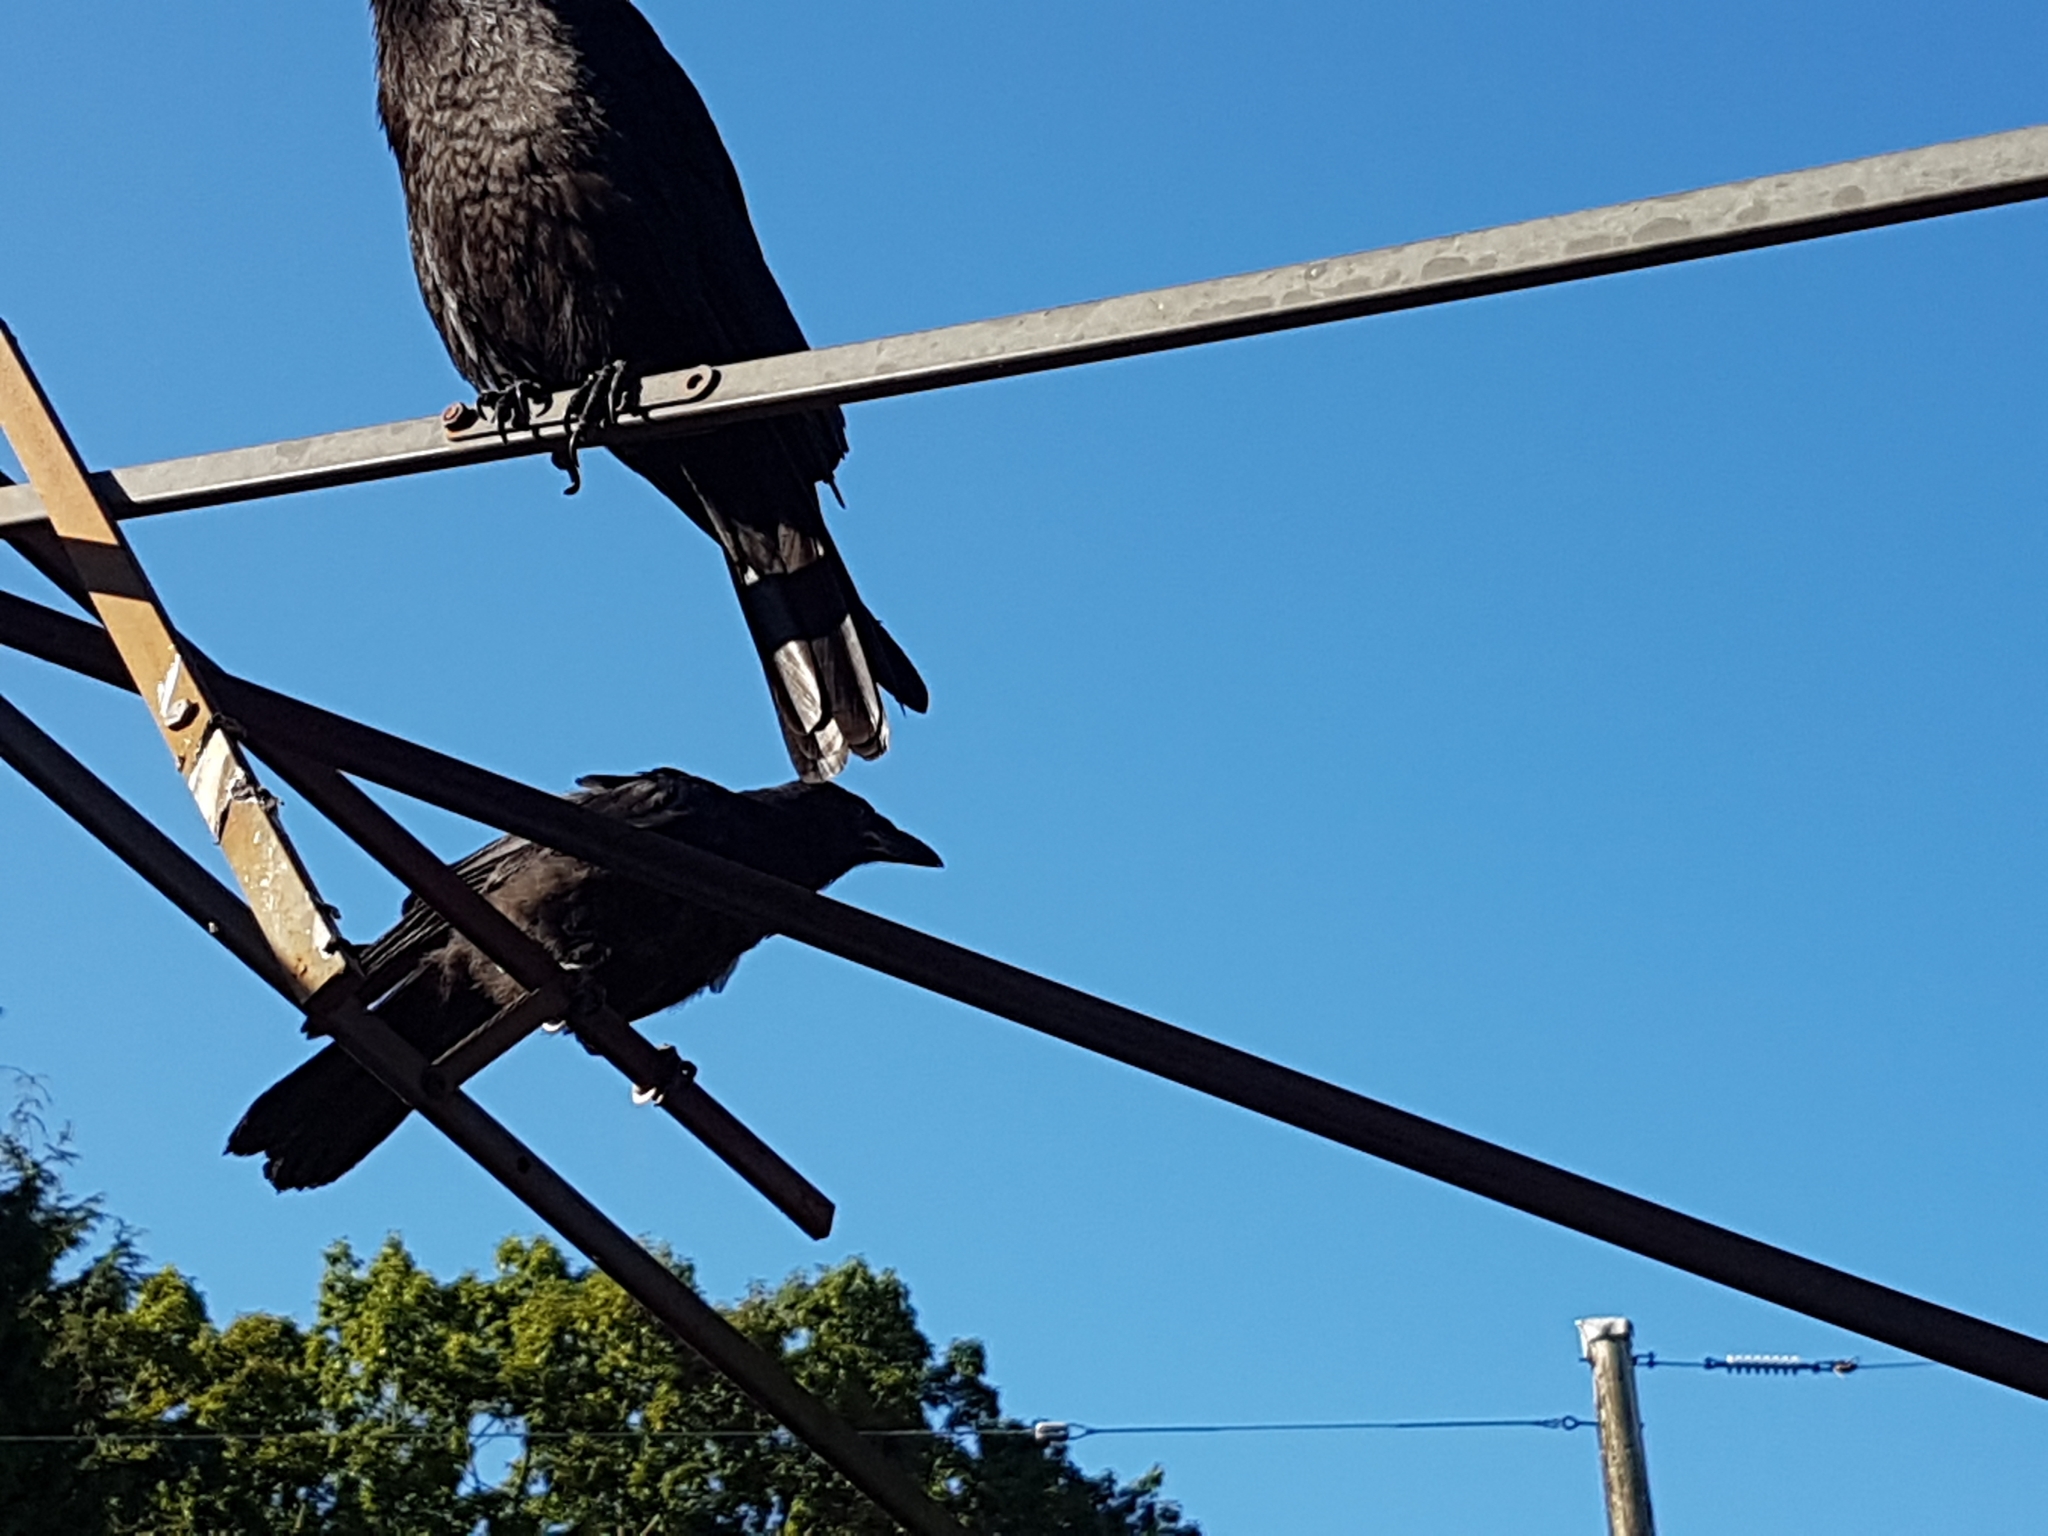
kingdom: Animalia
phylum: Chordata
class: Aves
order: Passeriformes
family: Corvidae
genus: Corvus
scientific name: Corvus brachyrhynchos
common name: American crow
